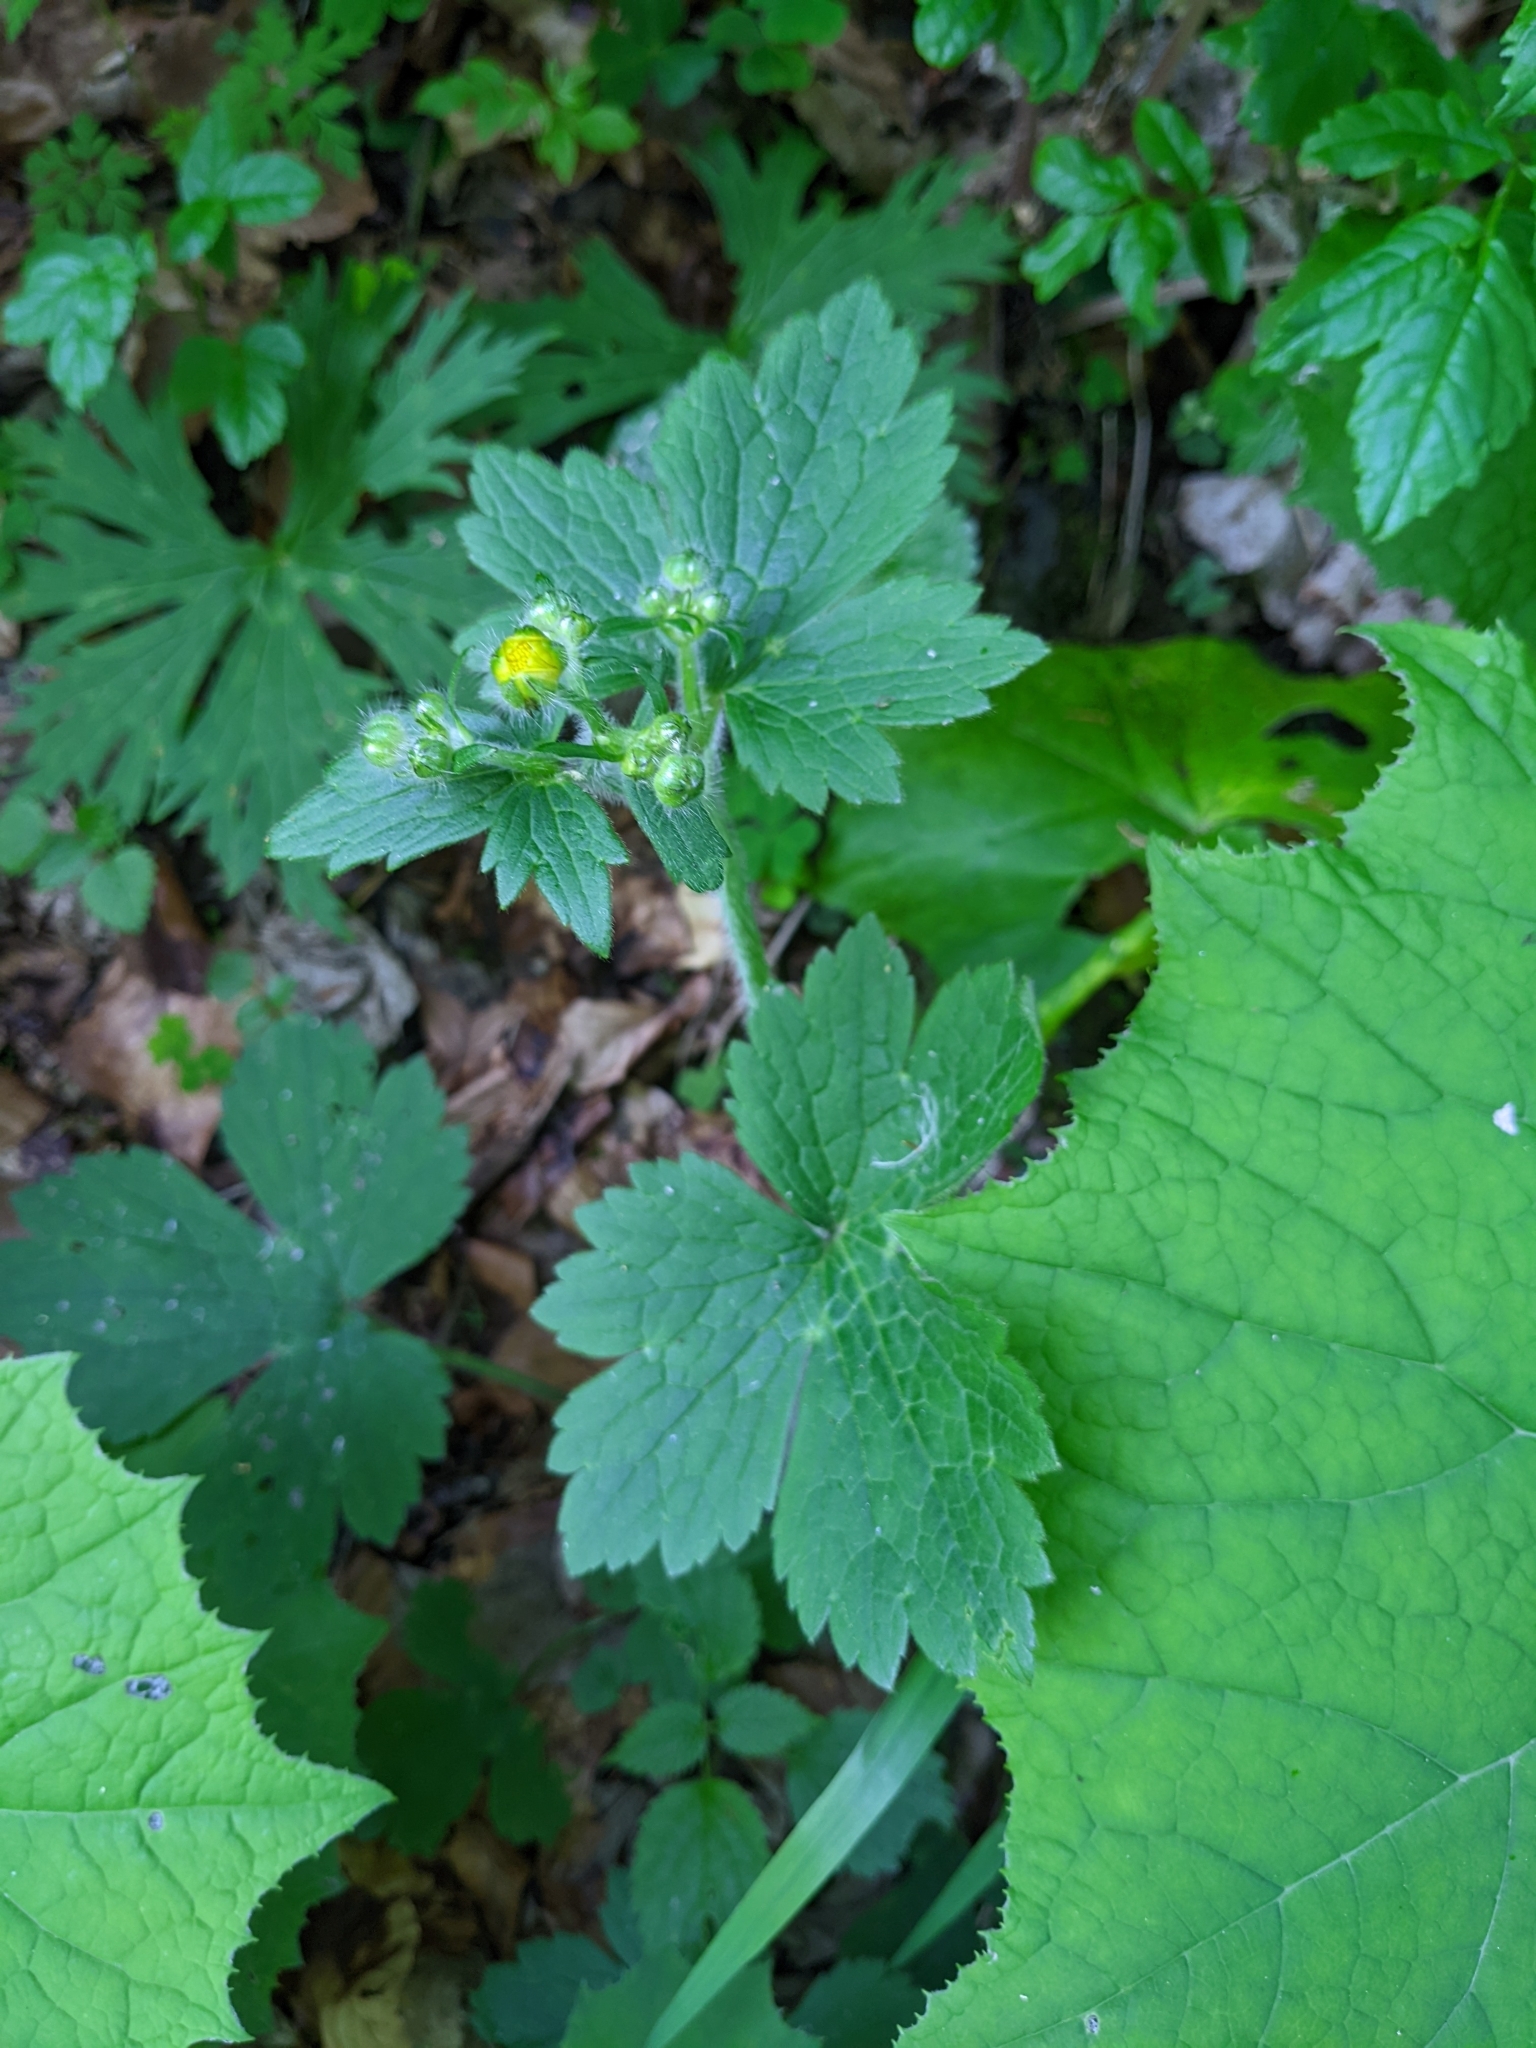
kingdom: Plantae
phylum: Tracheophyta
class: Magnoliopsida
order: Ranunculales
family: Ranunculaceae
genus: Ranunculus
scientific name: Ranunculus lanuginosus
